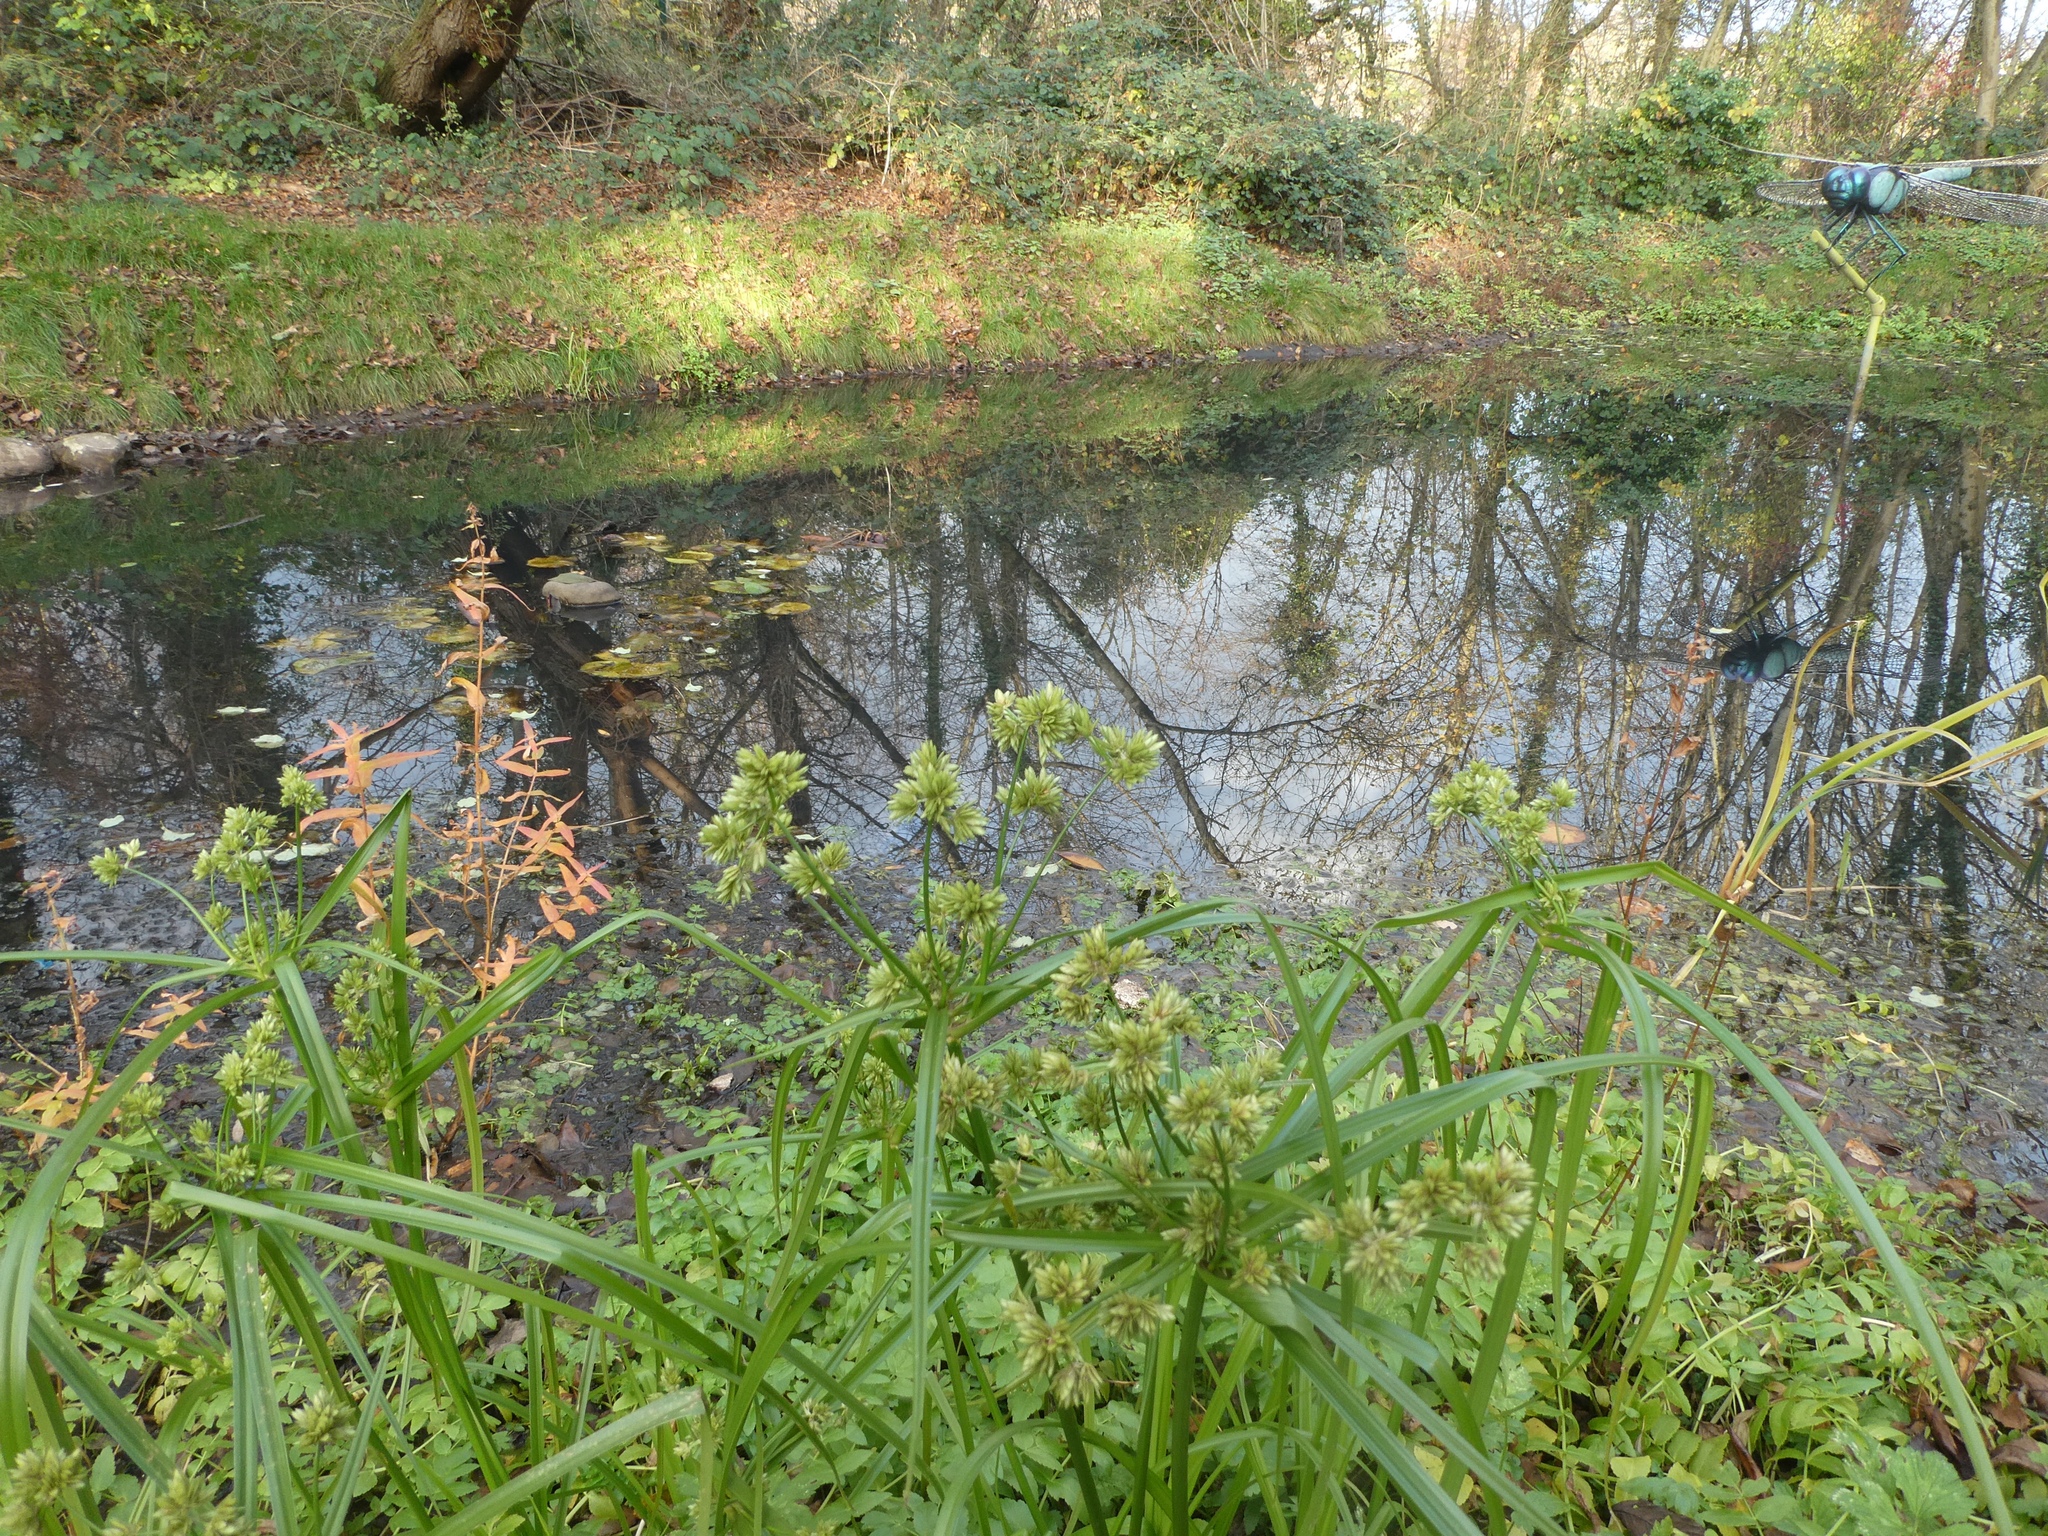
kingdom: Plantae
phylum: Tracheophyta
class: Liliopsida
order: Poales
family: Cyperaceae
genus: Cyperus
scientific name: Cyperus eragrostis
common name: Tall flatsedge
